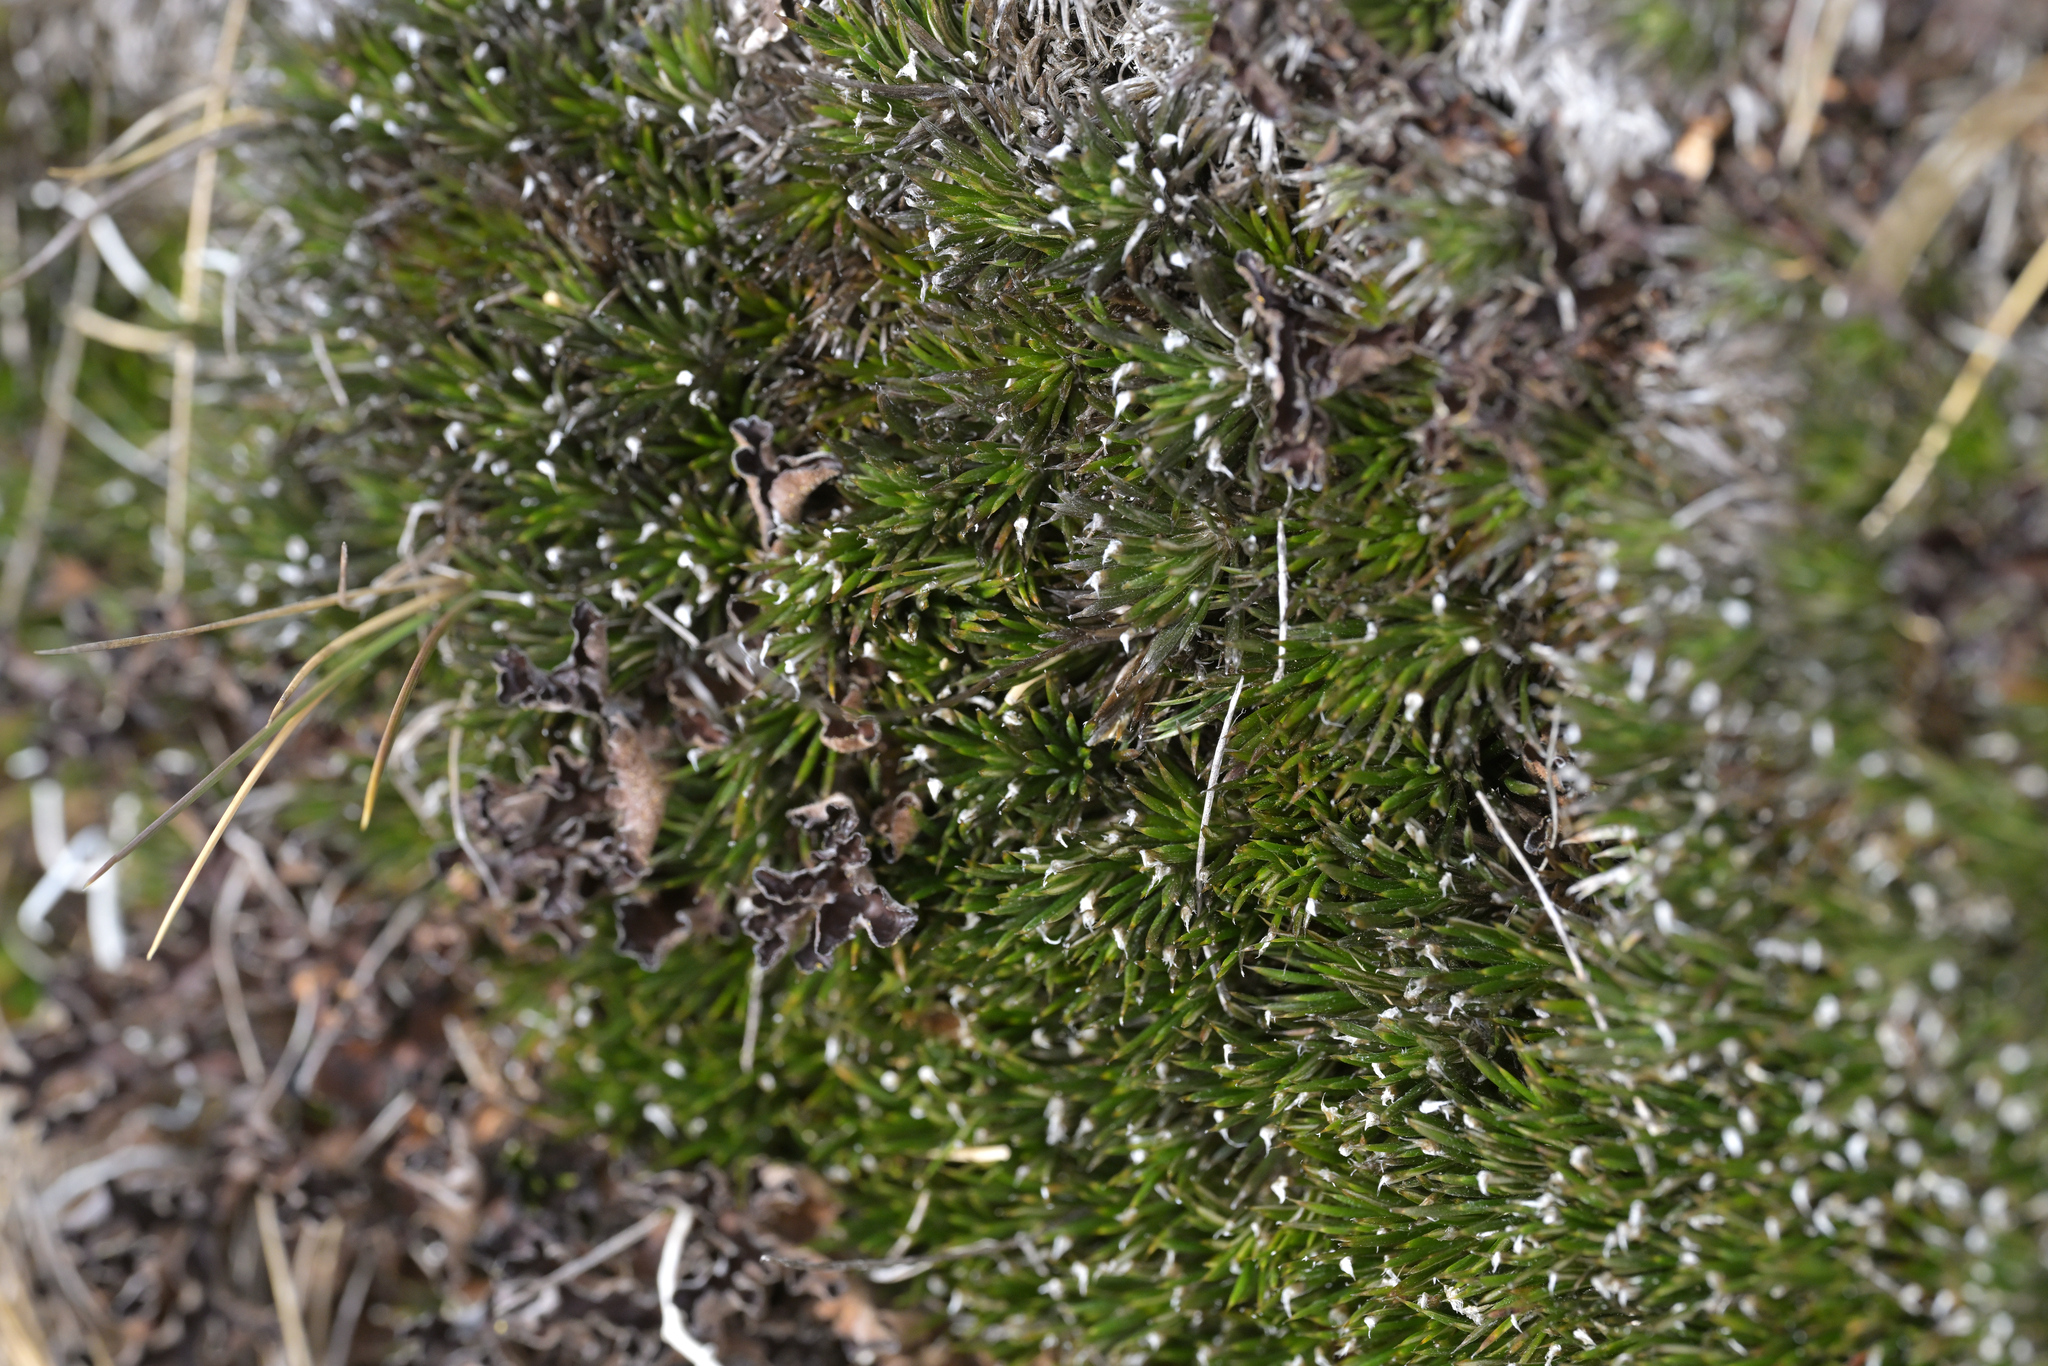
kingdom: Plantae
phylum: Tracheophyta
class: Magnoliopsida
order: Asterales
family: Asteraceae
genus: Celmisia
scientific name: Celmisia laricifolia
